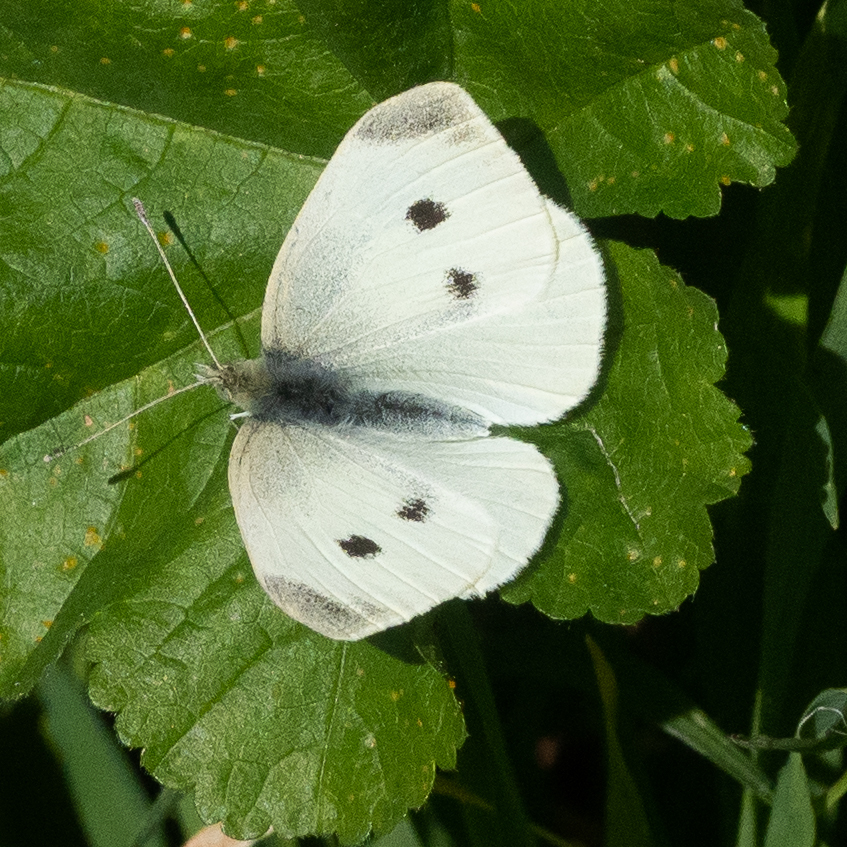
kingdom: Animalia
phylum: Arthropoda
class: Insecta
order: Lepidoptera
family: Pieridae
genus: Pieris
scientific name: Pieris rapae
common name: Small white
